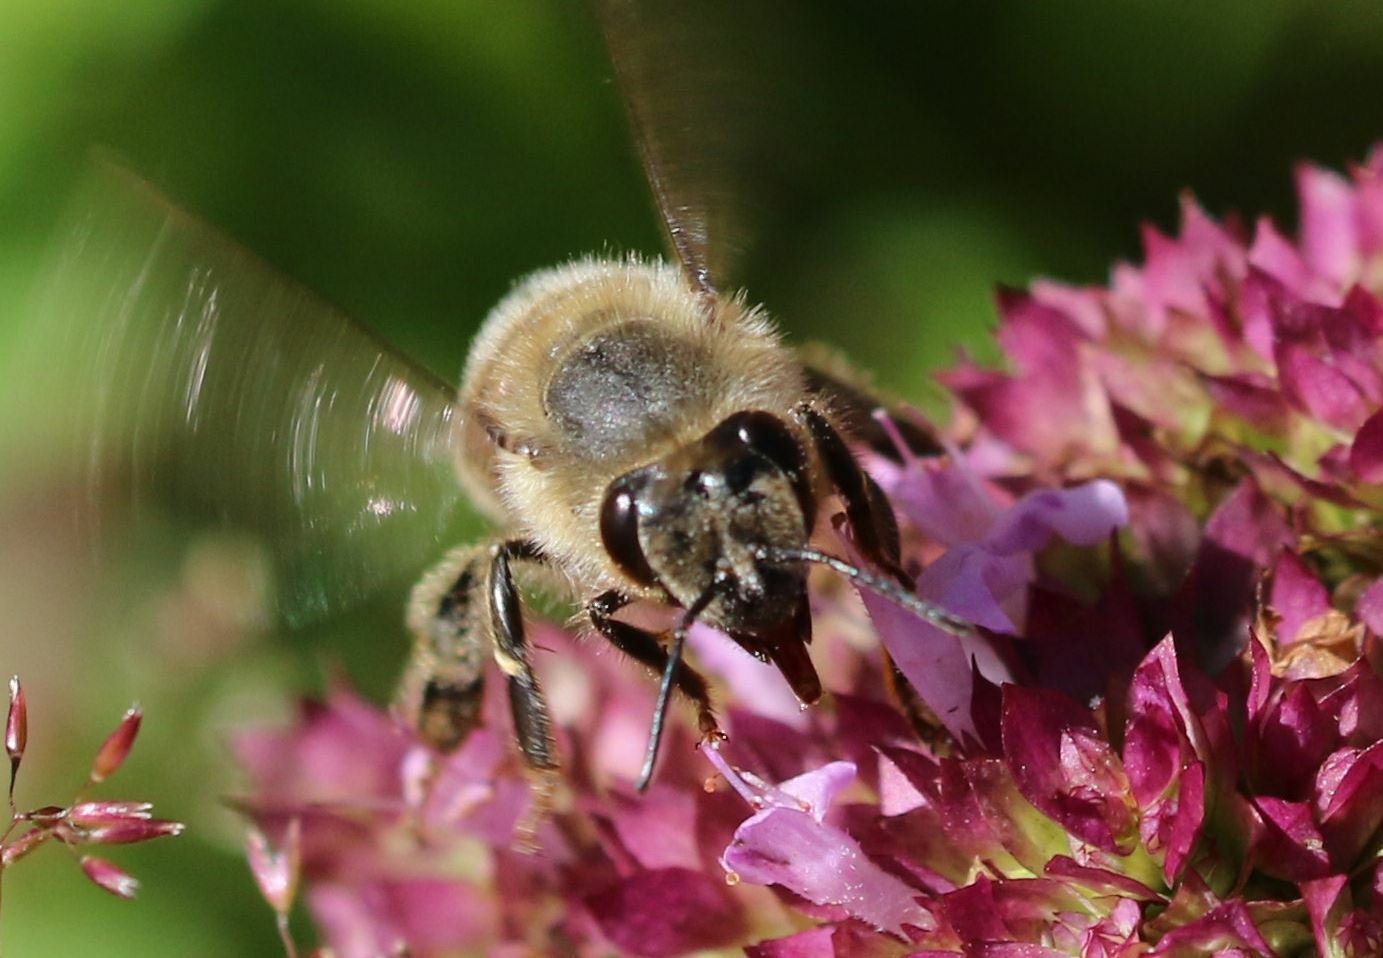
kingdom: Animalia
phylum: Arthropoda
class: Insecta
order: Hymenoptera
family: Apidae
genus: Apis
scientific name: Apis mellifera
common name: Honey bee
